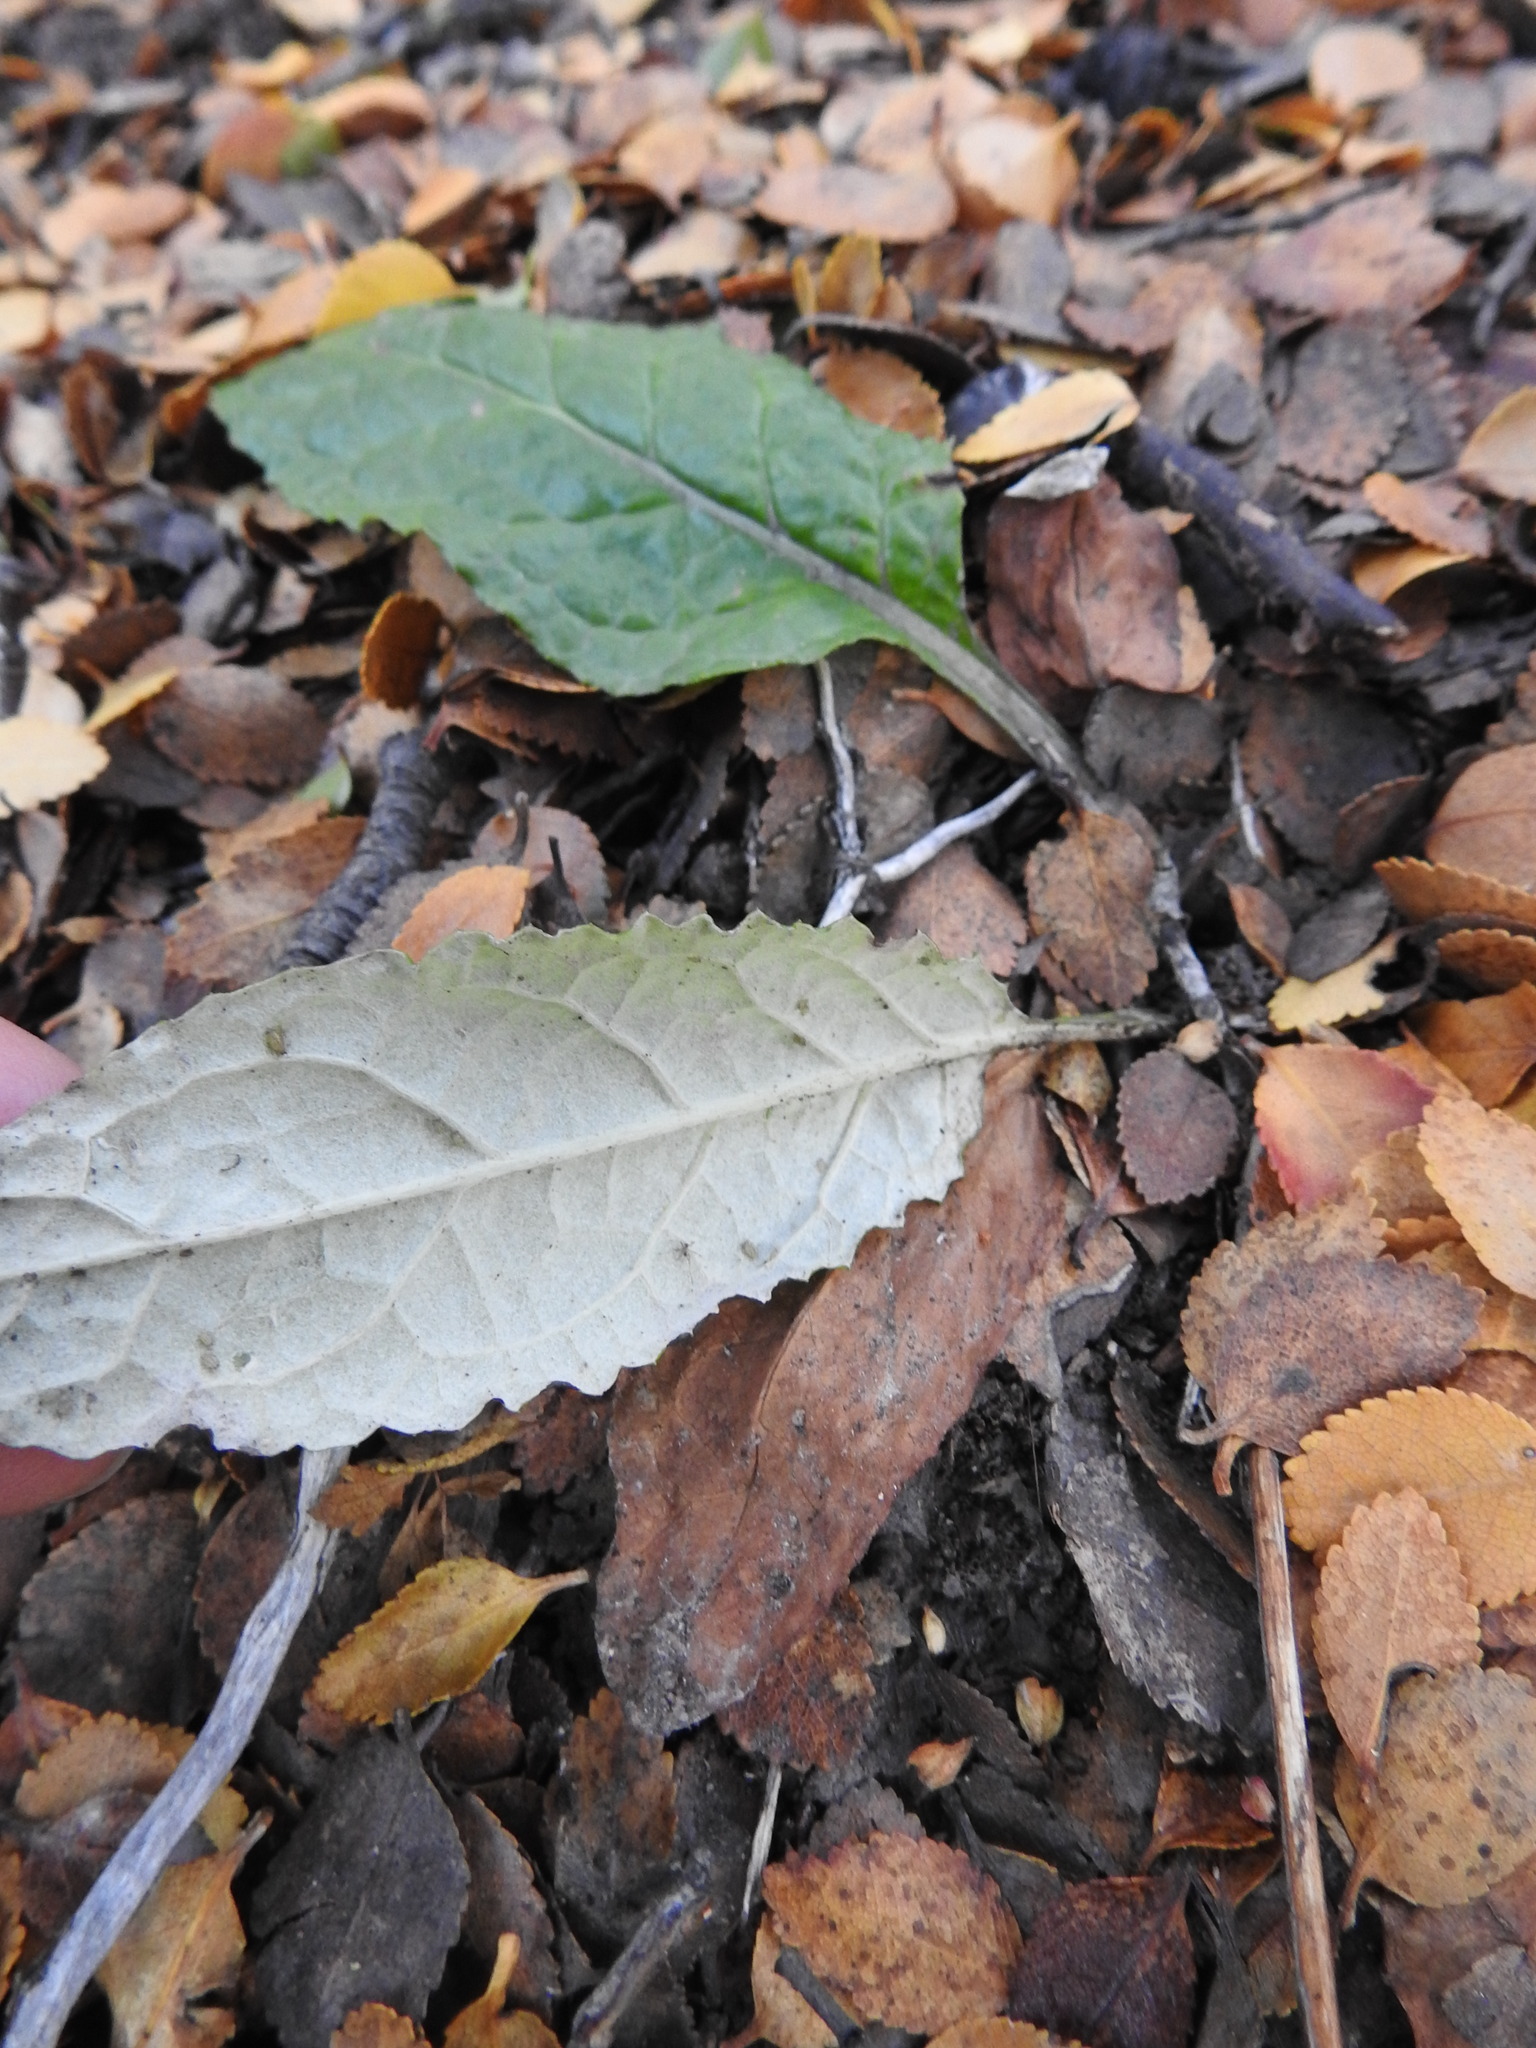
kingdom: Plantae
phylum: Tracheophyta
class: Magnoliopsida
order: Asterales
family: Asteraceae
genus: Adenocaulon
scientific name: Adenocaulon chilense
